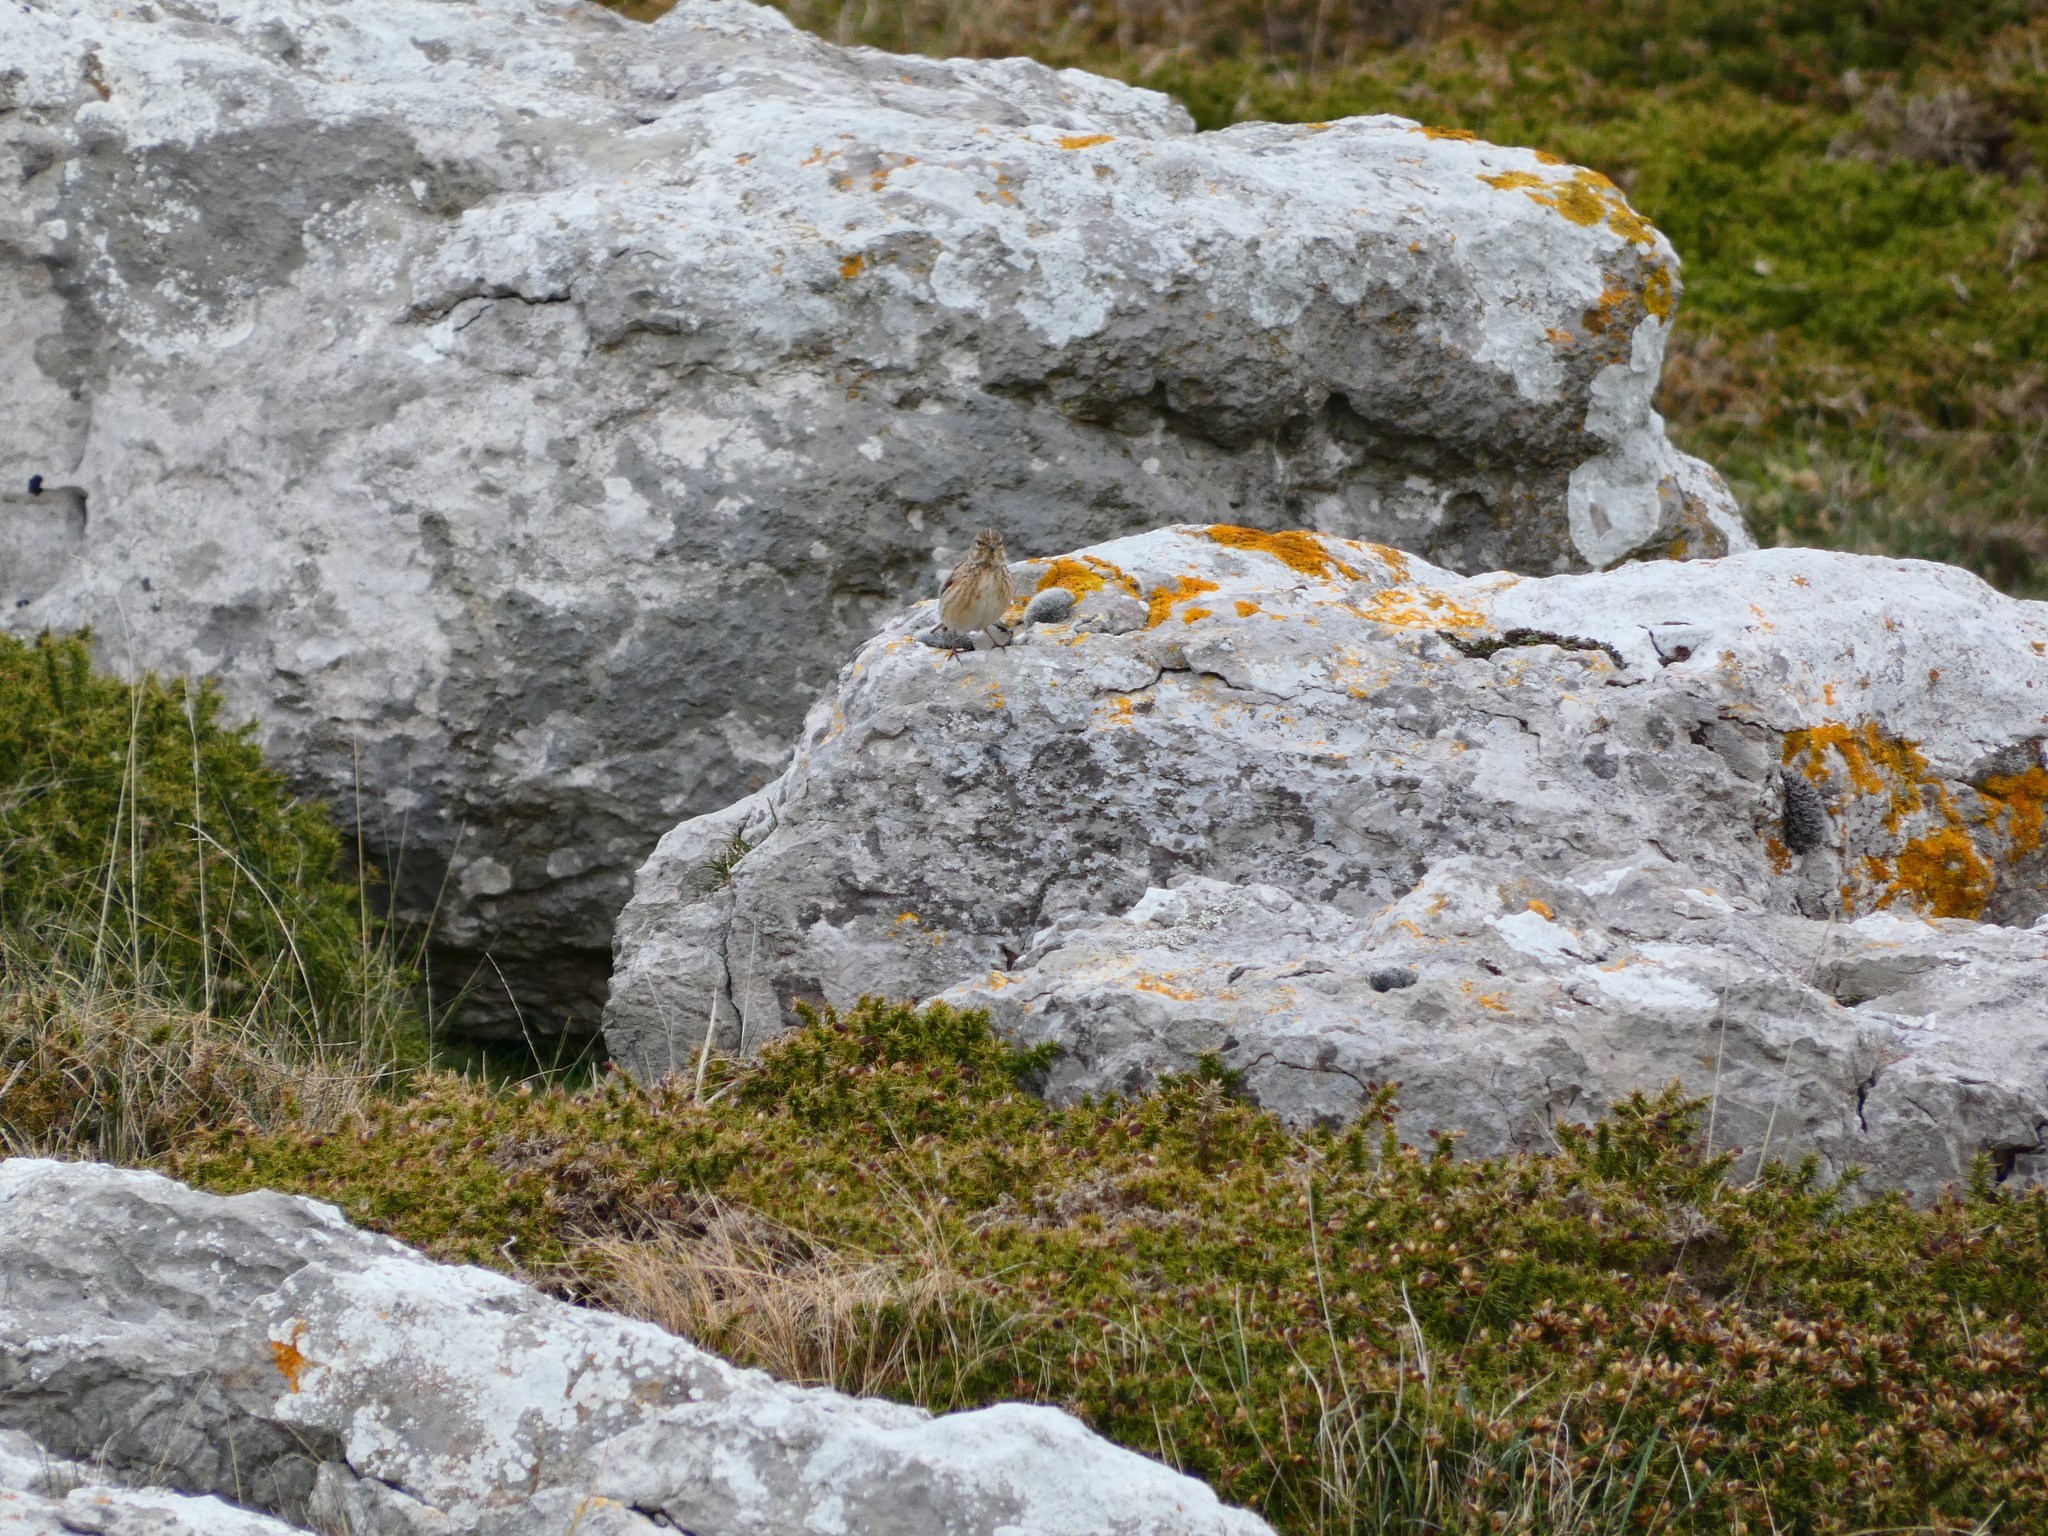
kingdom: Animalia
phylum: Chordata
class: Aves
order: Passeriformes
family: Fringillidae
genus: Linaria
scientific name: Linaria cannabina
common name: Common linnet
